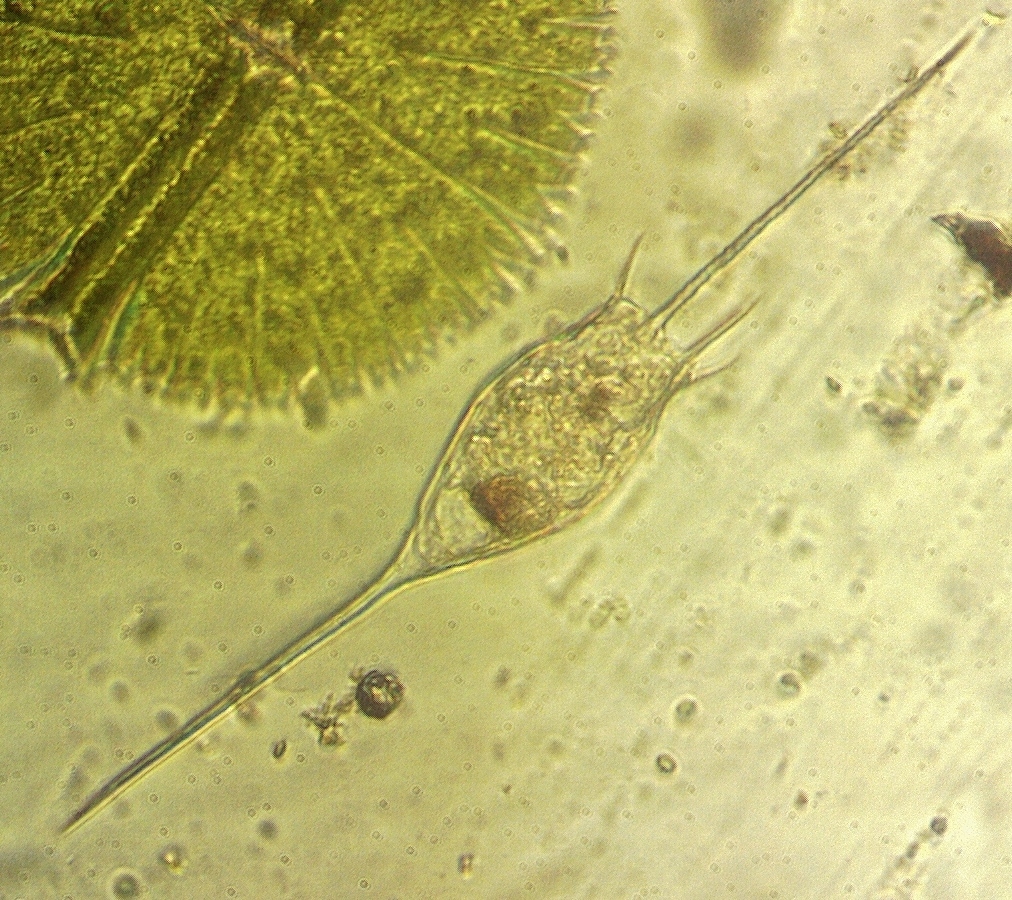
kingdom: Animalia
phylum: Rotifera
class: Eurotatoria
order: Ploima
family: Brachionidae
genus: Kellicottia
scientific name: Kellicottia bostoniensis
